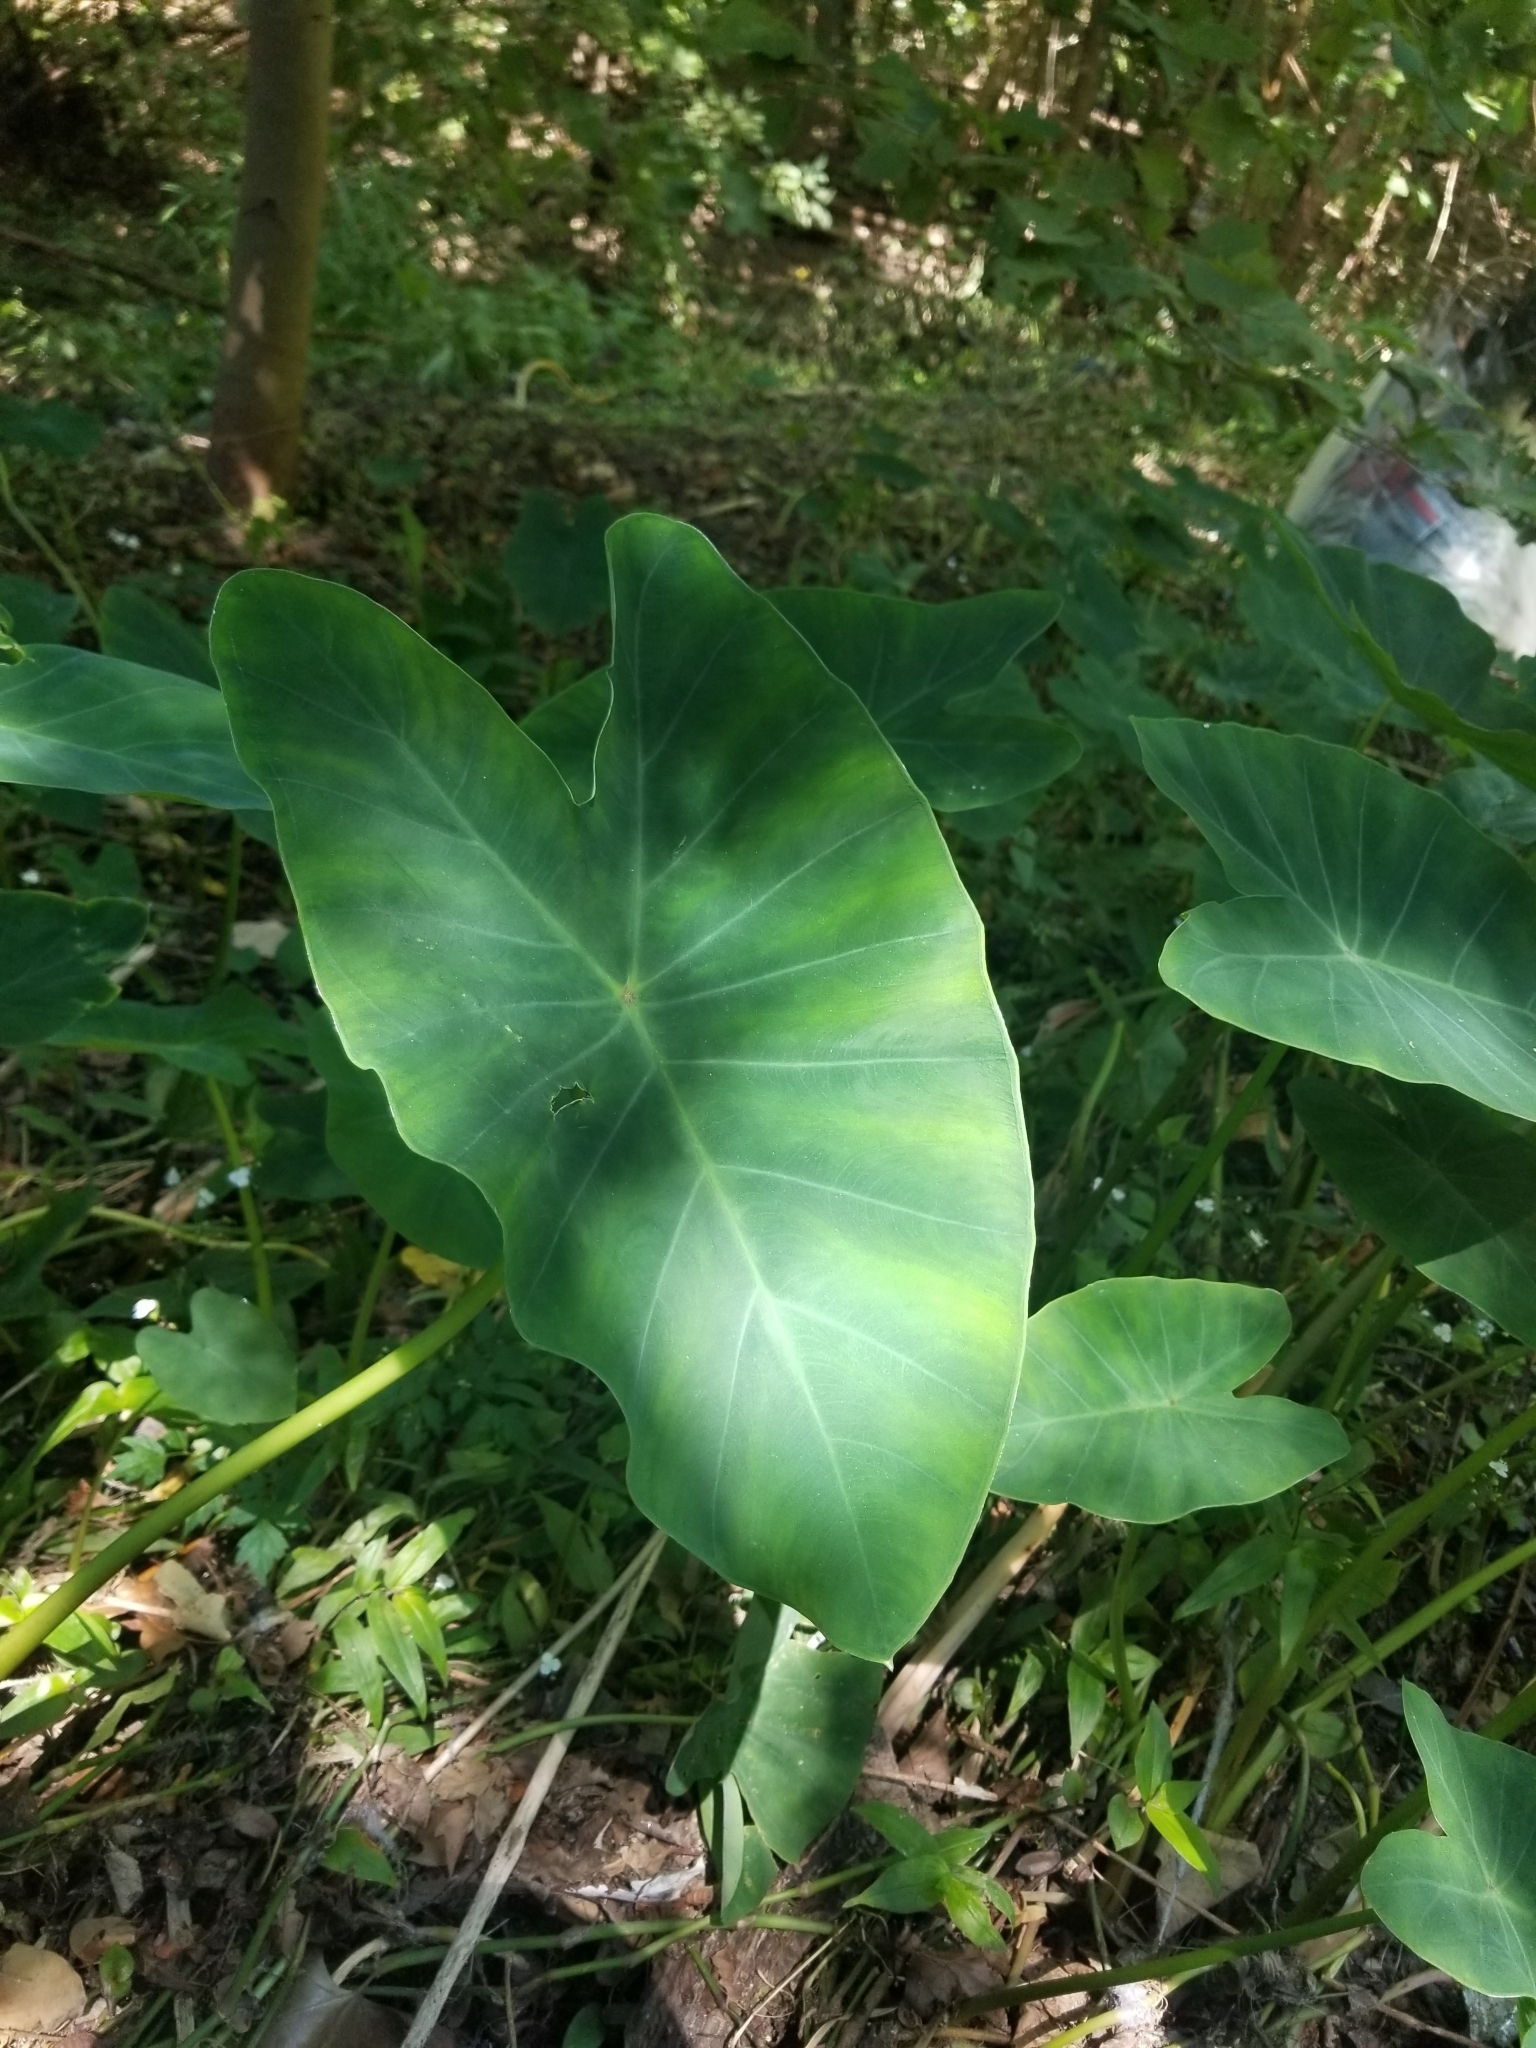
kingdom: Plantae
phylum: Tracheophyta
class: Liliopsida
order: Alismatales
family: Araceae
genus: Colocasia
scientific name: Colocasia esculenta
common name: Taro
